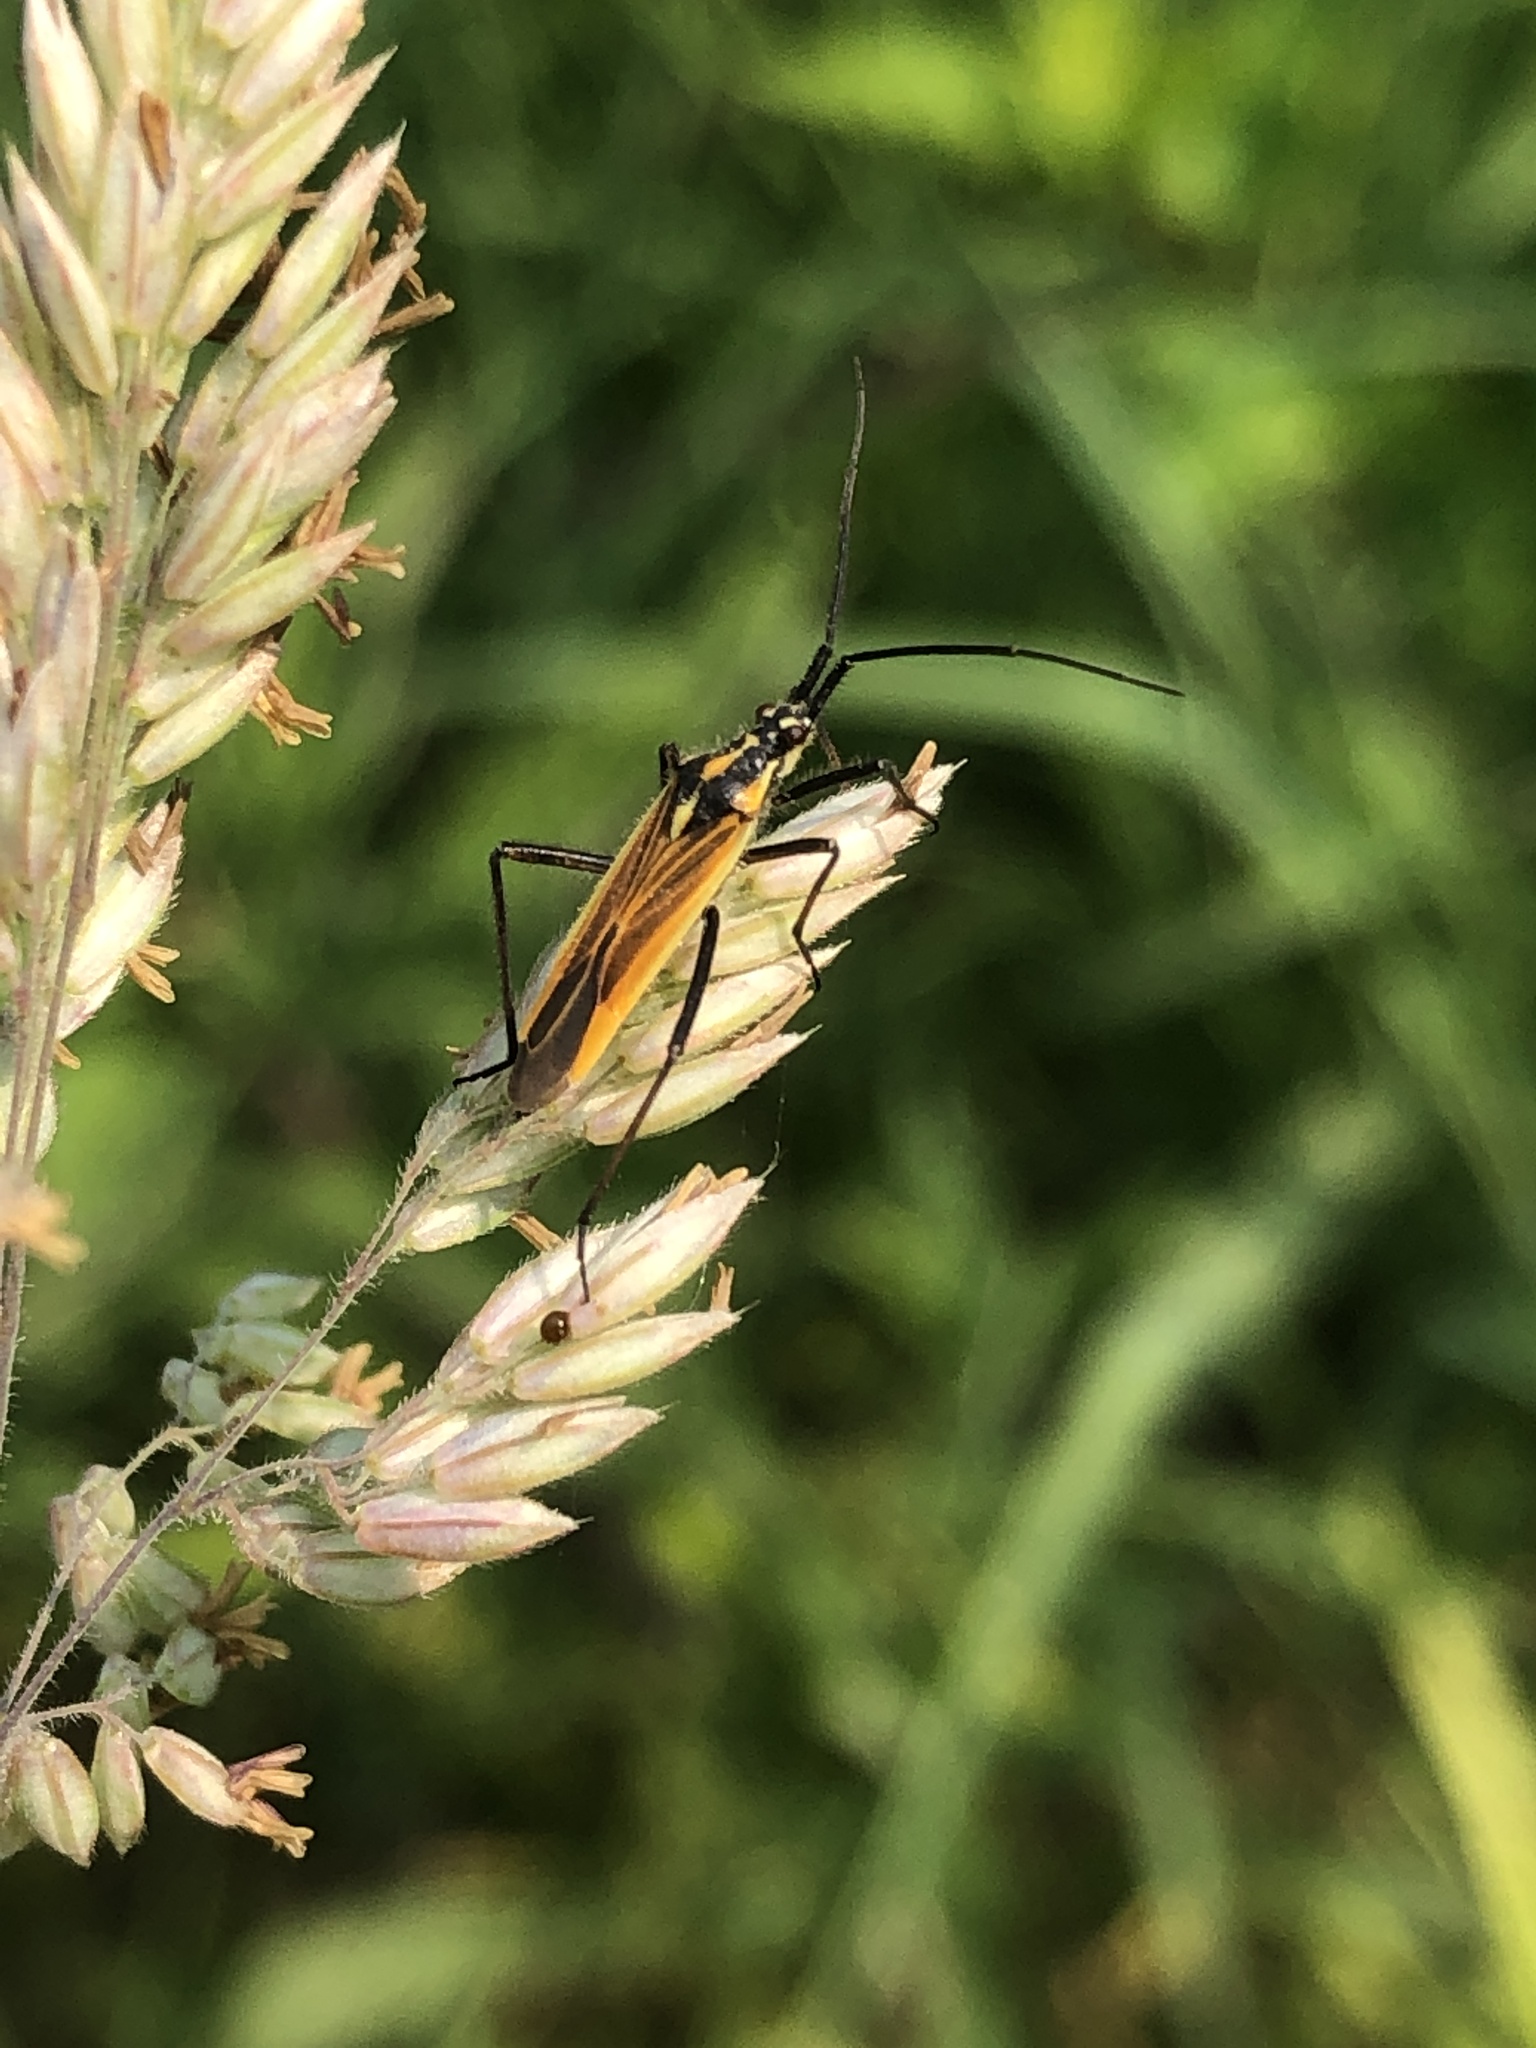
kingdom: Animalia
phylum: Arthropoda
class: Insecta
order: Hemiptera
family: Miridae
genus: Leptopterna
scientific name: Leptopterna dolabrata
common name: Meadow plant bug
